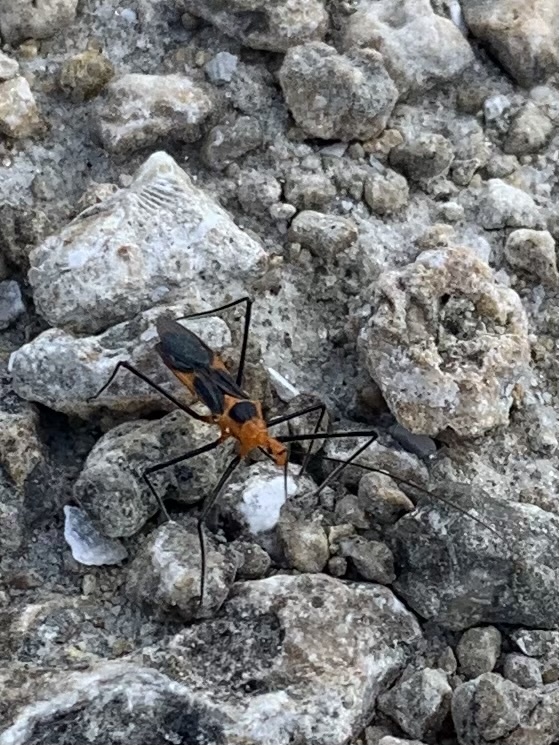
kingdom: Animalia
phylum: Arthropoda
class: Insecta
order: Hemiptera
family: Reduviidae
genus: Zelus
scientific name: Zelus longipes
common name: Milkweed assassin bug
